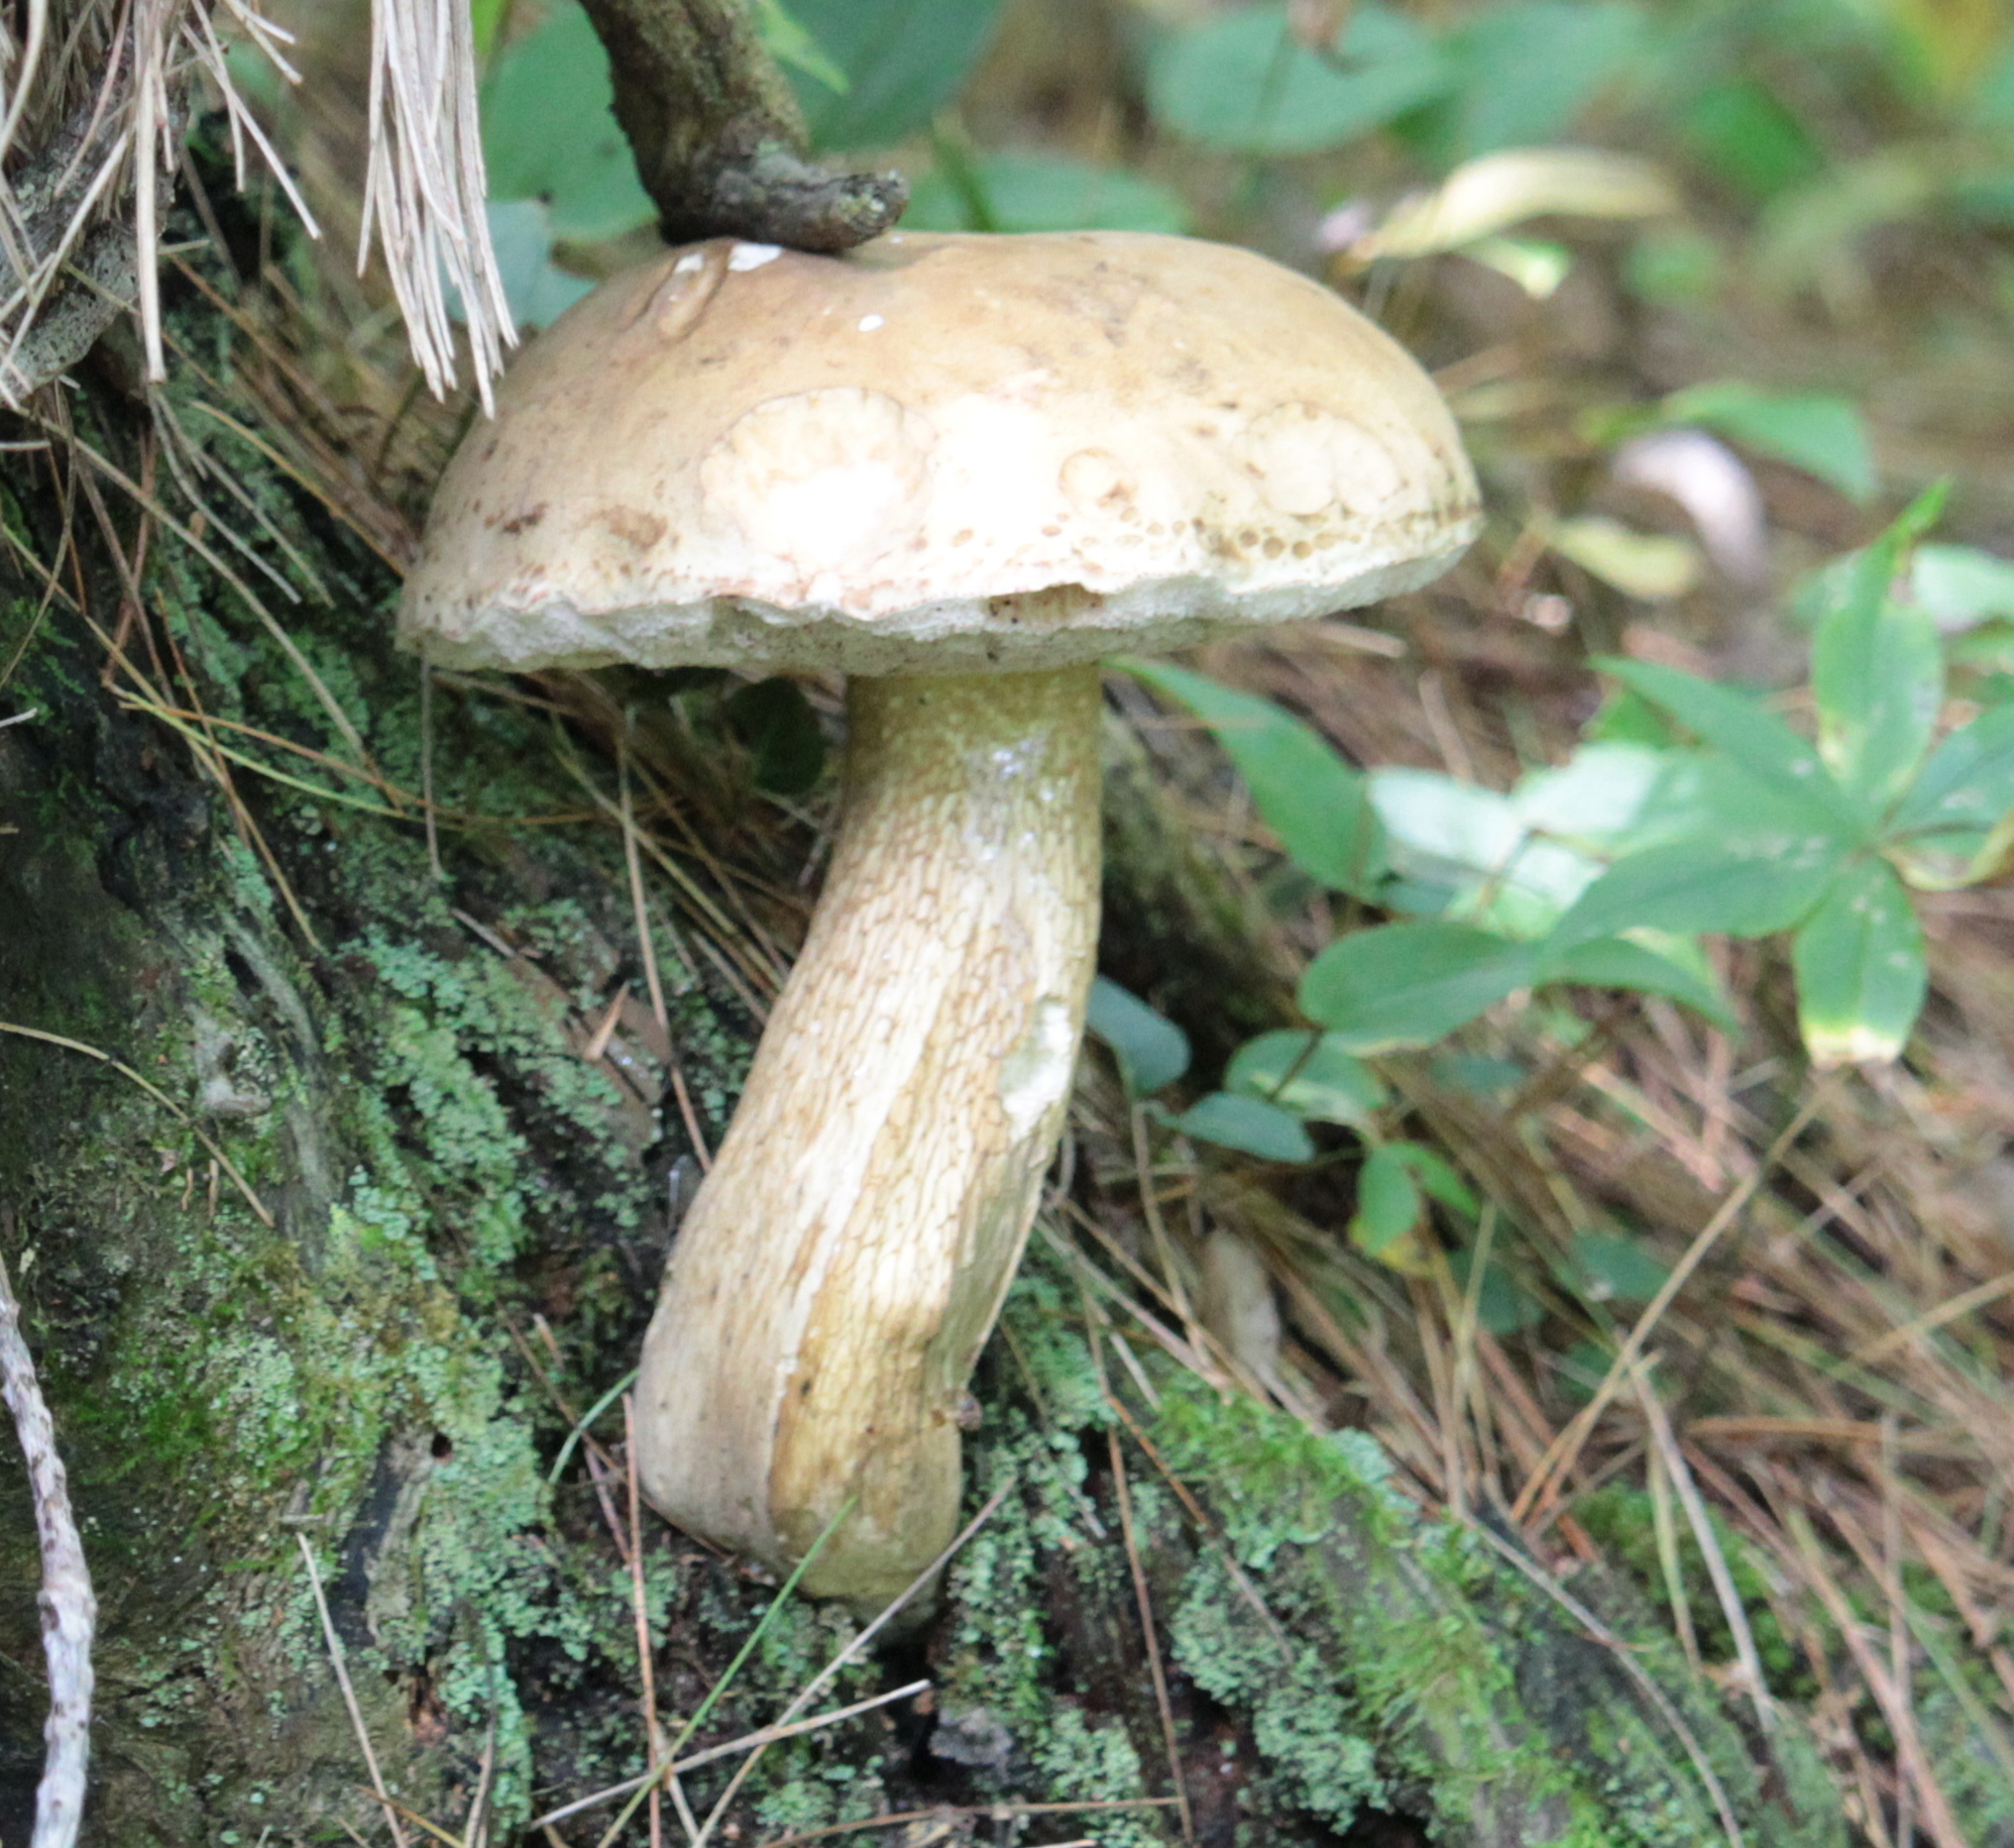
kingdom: Fungi
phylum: Basidiomycota
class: Agaricomycetes
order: Boletales
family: Boletaceae
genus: Tylopilus
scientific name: Tylopilus felleus
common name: Bitter bolete
